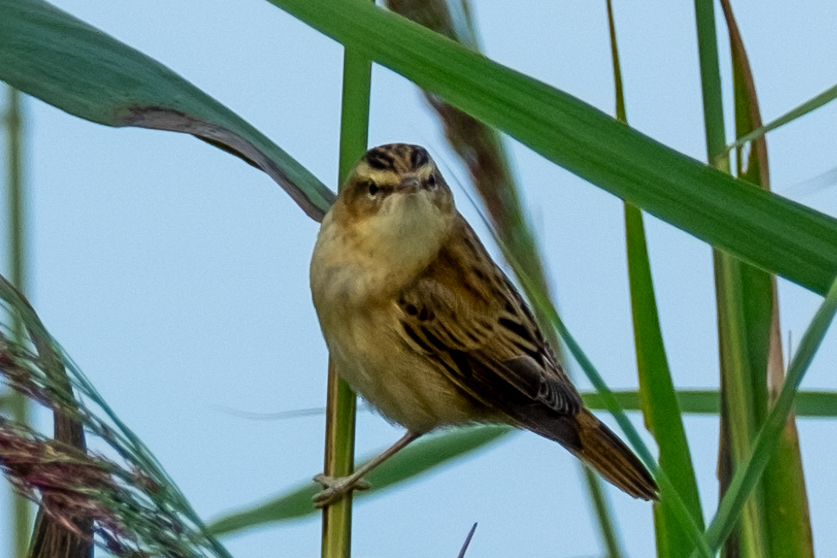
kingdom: Animalia
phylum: Chordata
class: Aves
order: Passeriformes
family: Acrocephalidae
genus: Acrocephalus
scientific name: Acrocephalus schoenobaenus
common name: Sedge warbler
